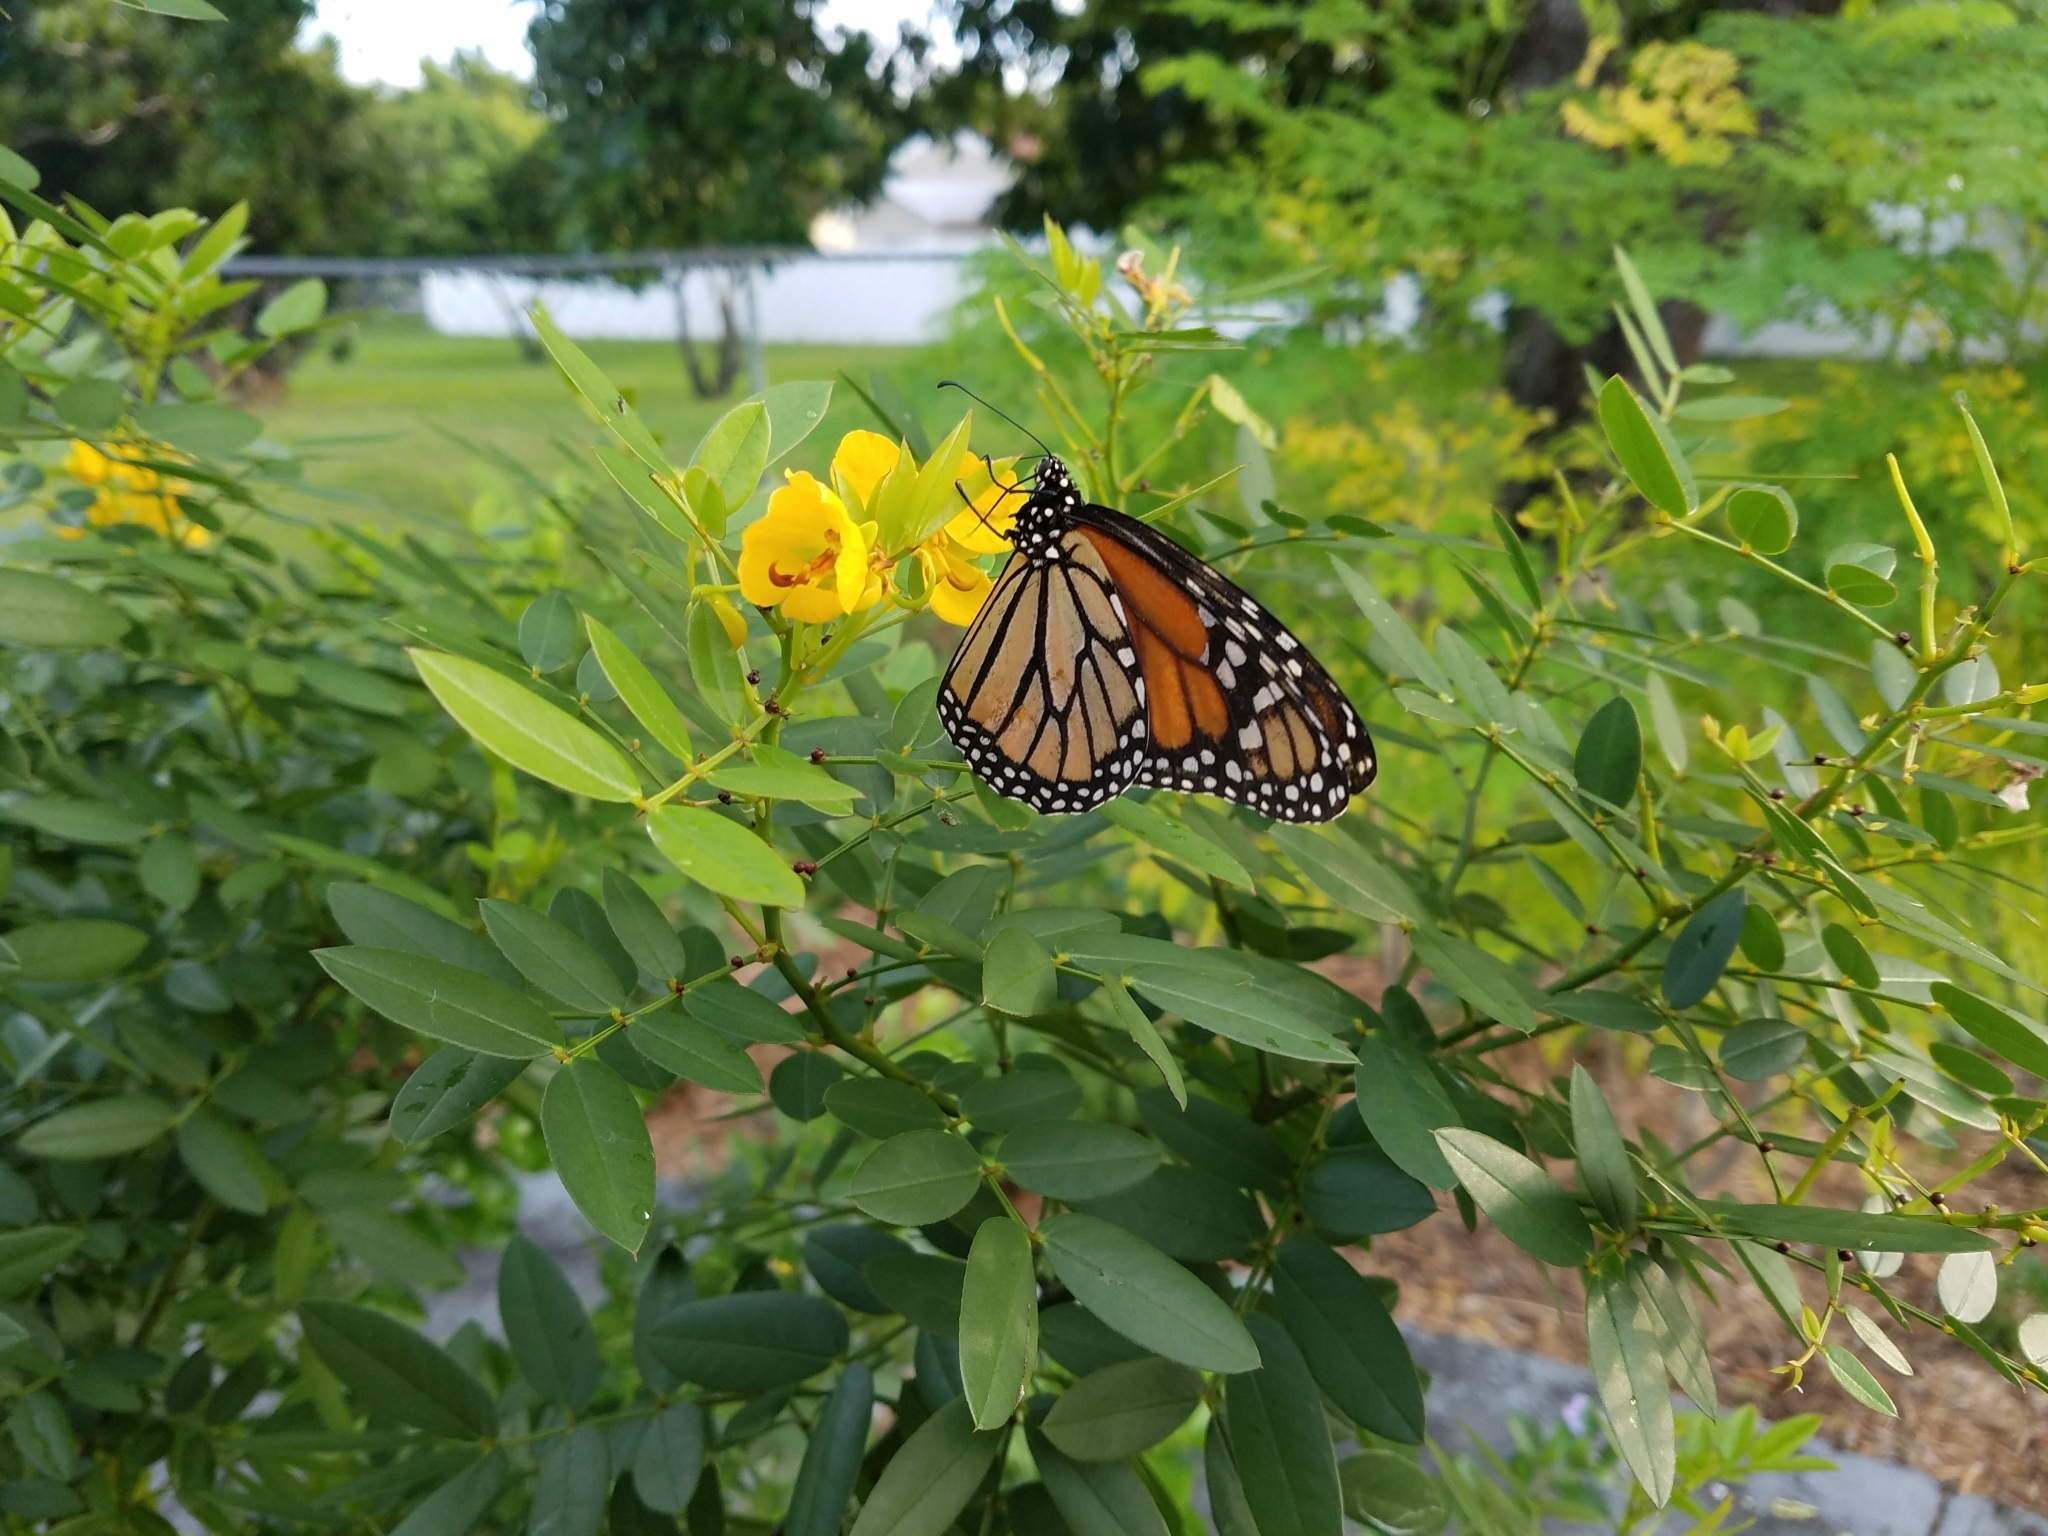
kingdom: Animalia
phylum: Arthropoda
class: Insecta
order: Lepidoptera
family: Nymphalidae
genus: Danaus
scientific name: Danaus plexippus
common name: Monarch
